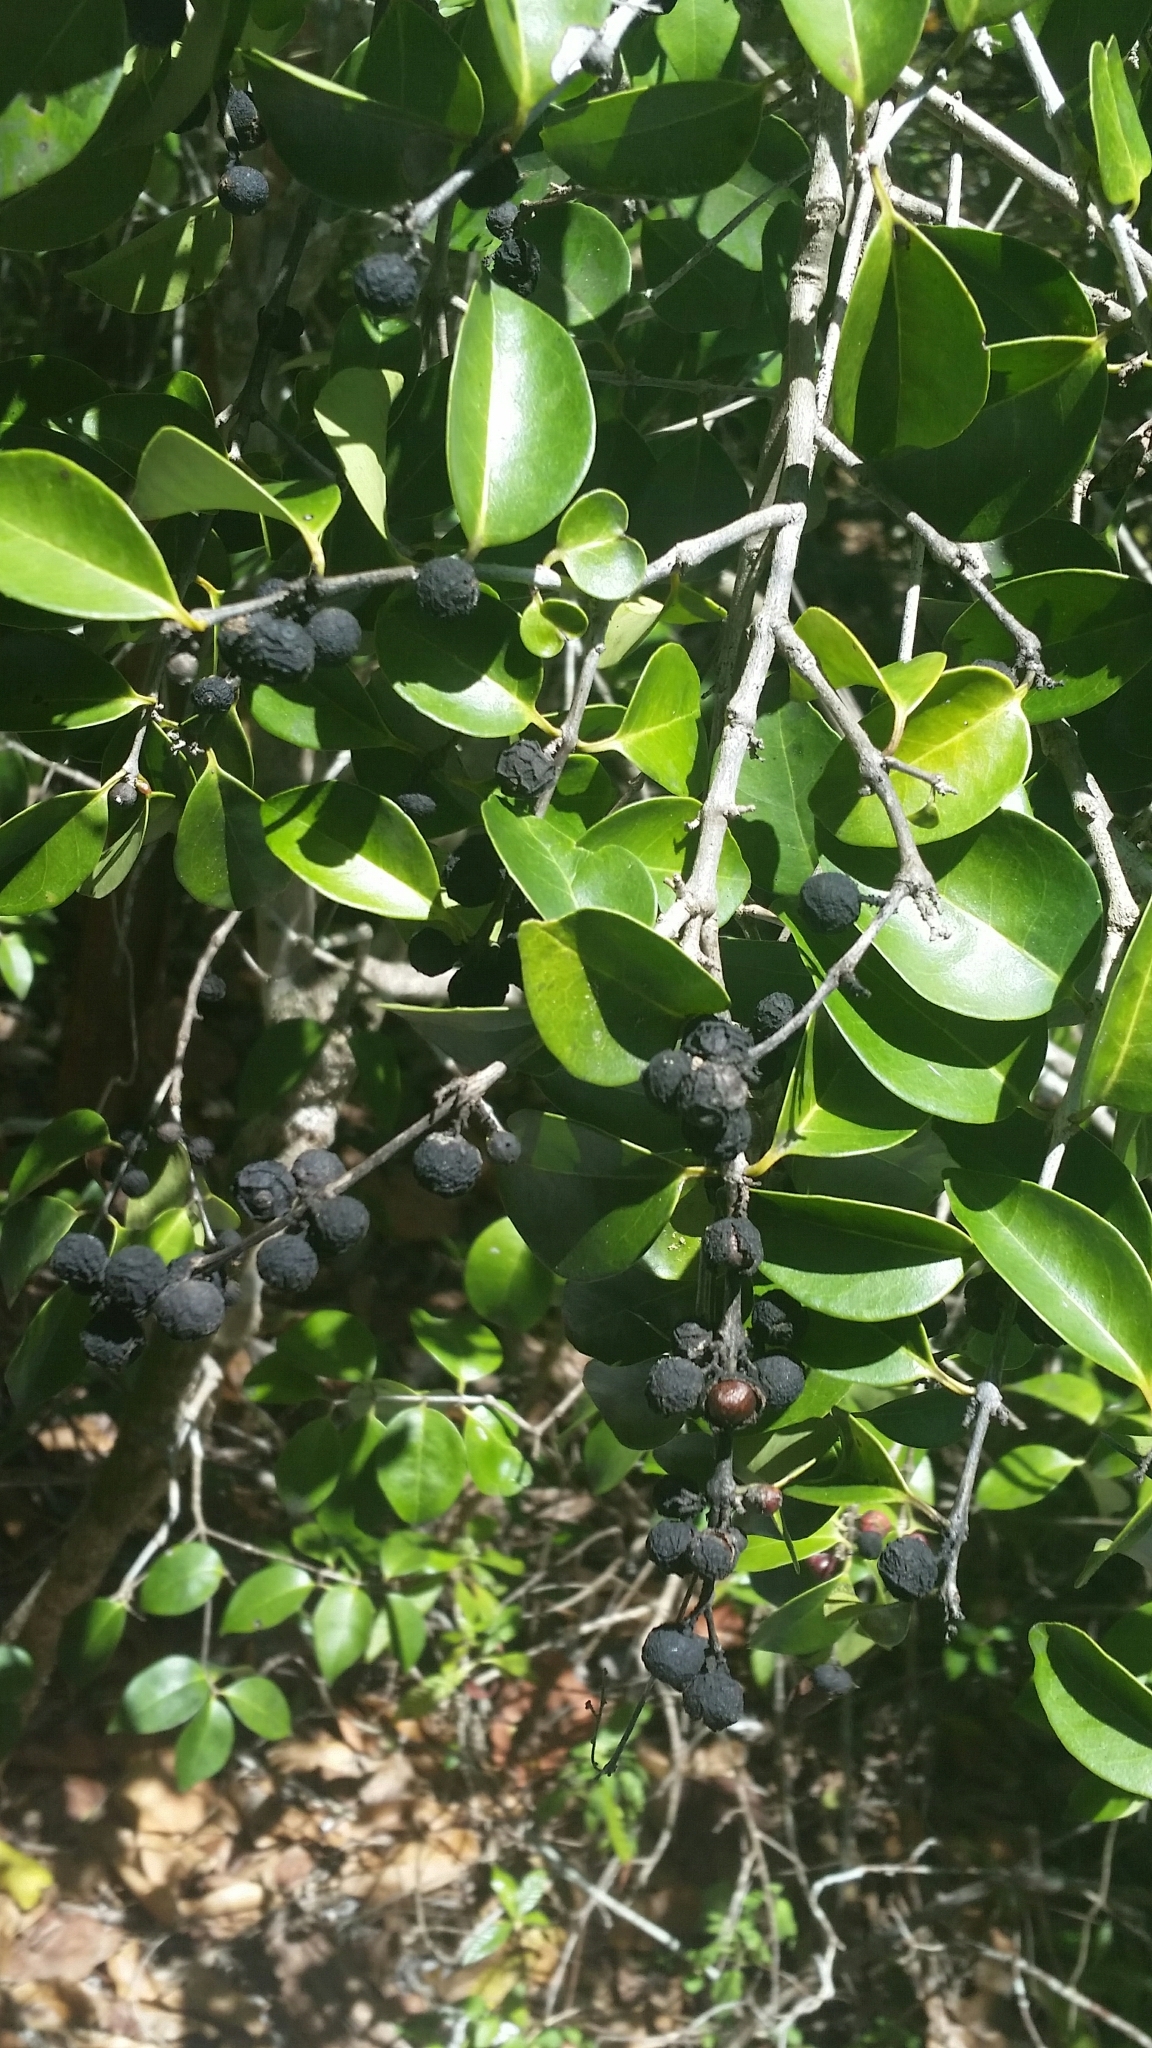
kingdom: Plantae
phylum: Tracheophyta
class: Magnoliopsida
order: Myrtales
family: Myrtaceae
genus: Eugenia
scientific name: Eugenia axillaris
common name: Choaky berry
